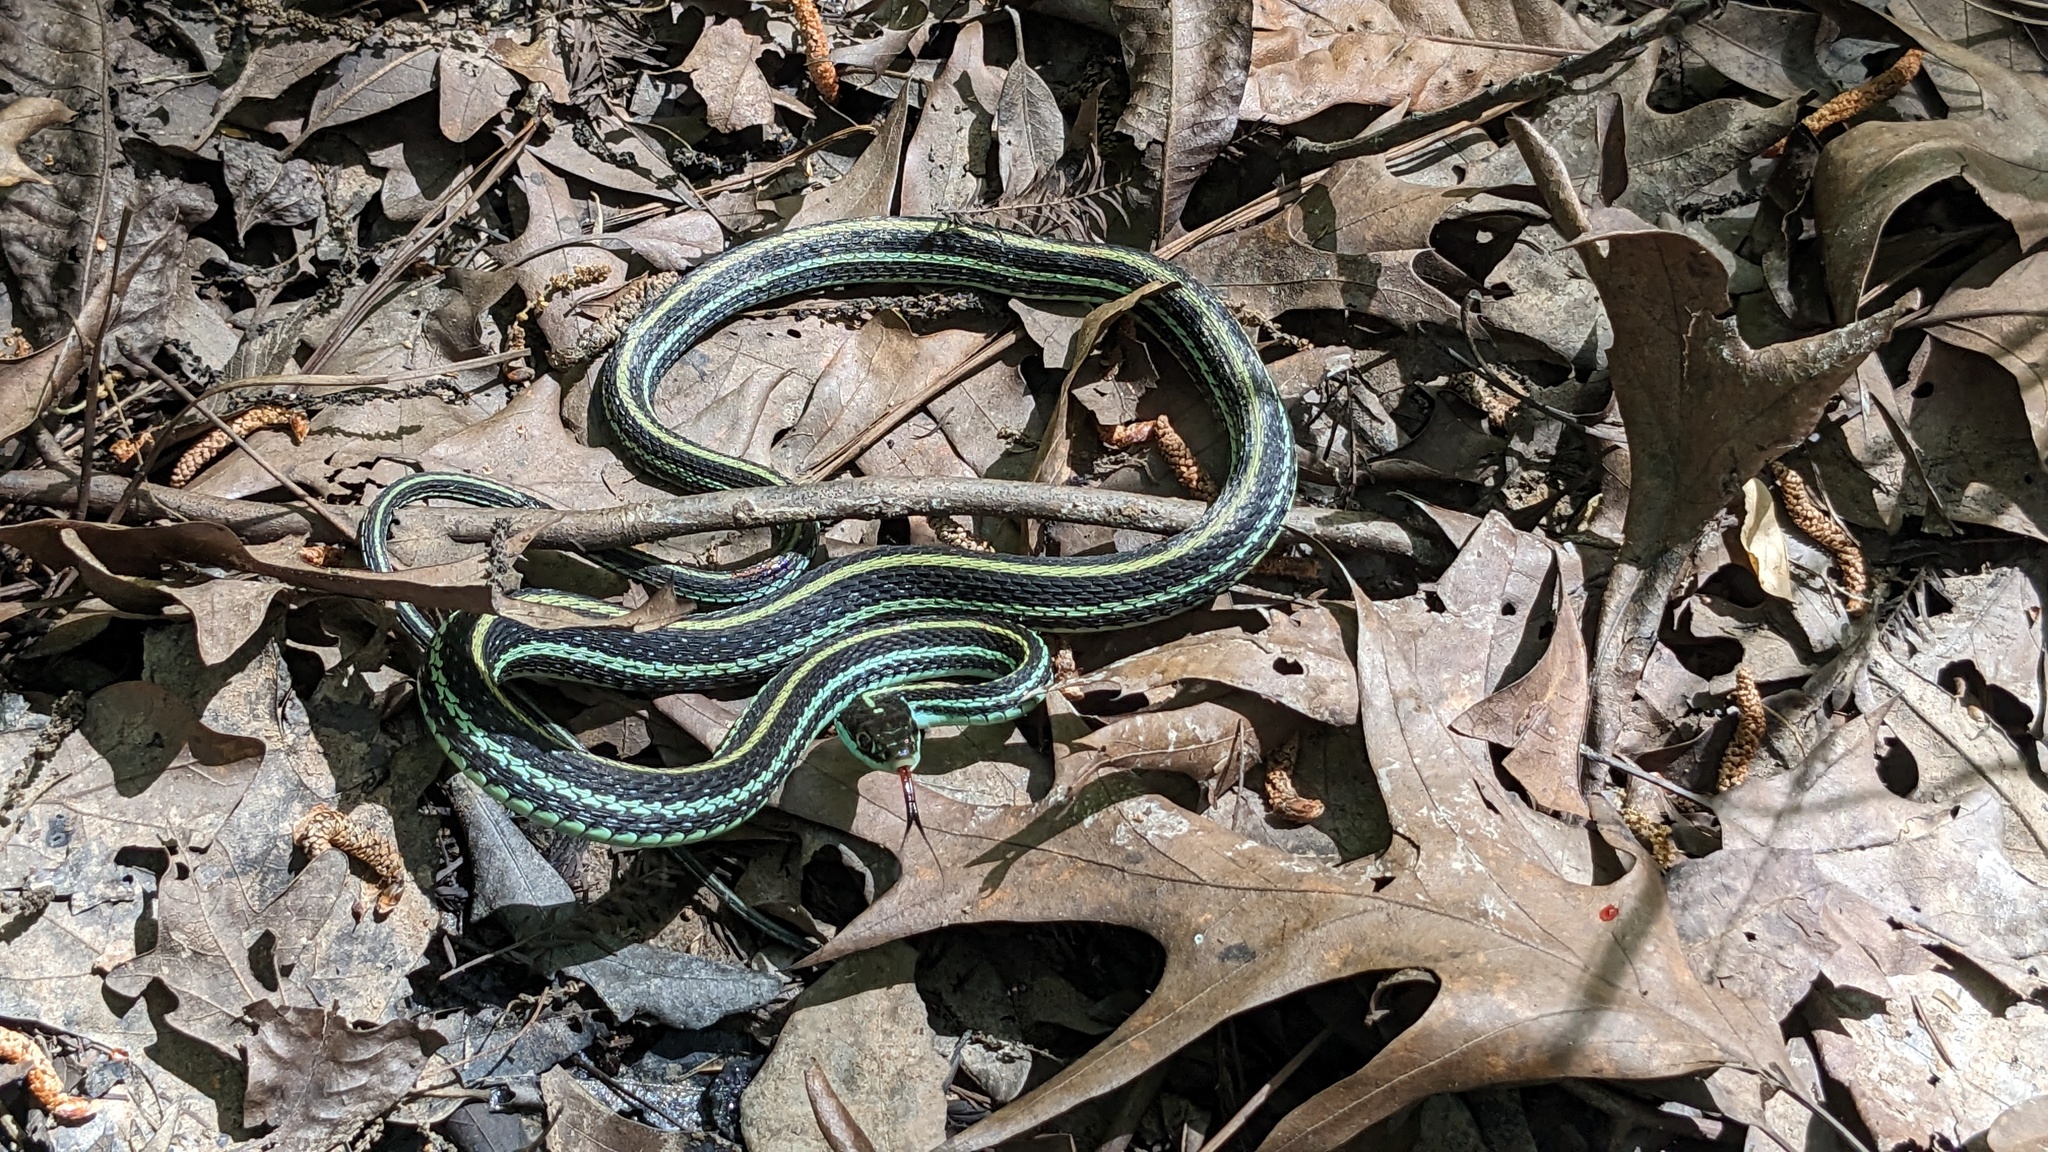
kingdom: Animalia
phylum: Chordata
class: Squamata
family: Colubridae
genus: Thamnophis
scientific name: Thamnophis proximus
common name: Western ribbon snake
